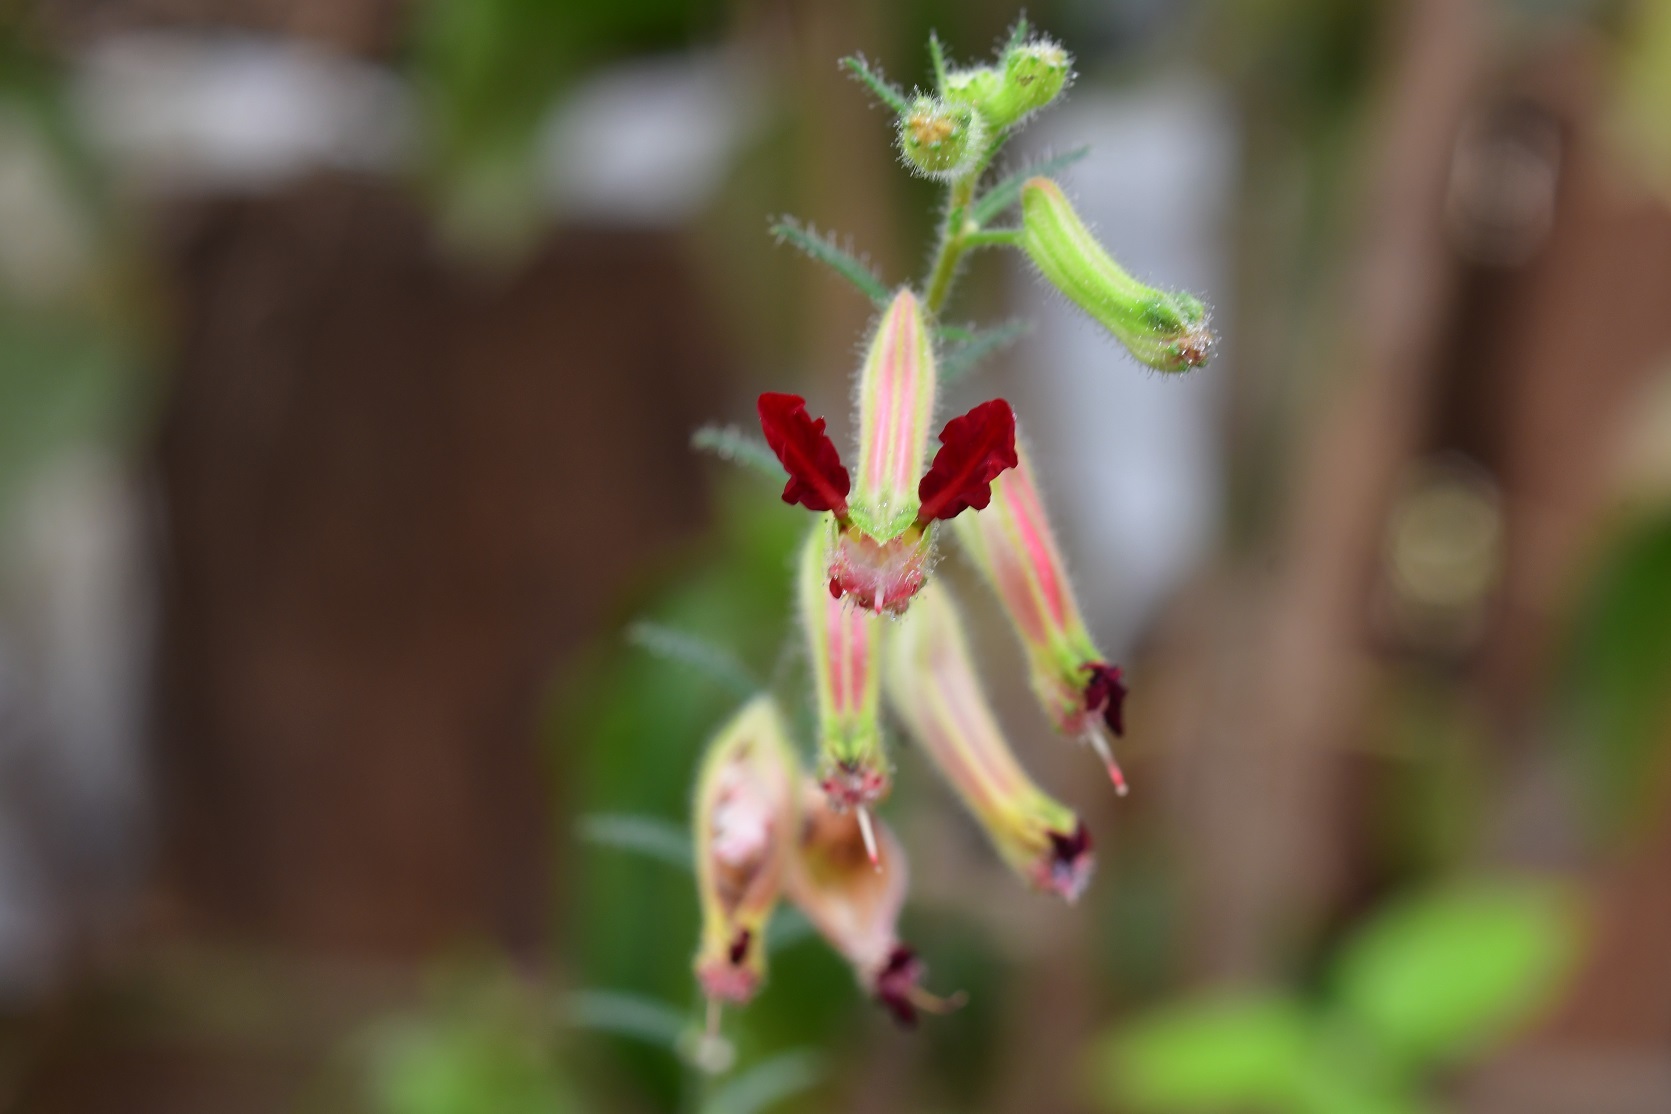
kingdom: Plantae
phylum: Tracheophyta
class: Magnoliopsida
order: Myrtales
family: Lythraceae
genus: Cuphea
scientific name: Cuphea hookeriana
